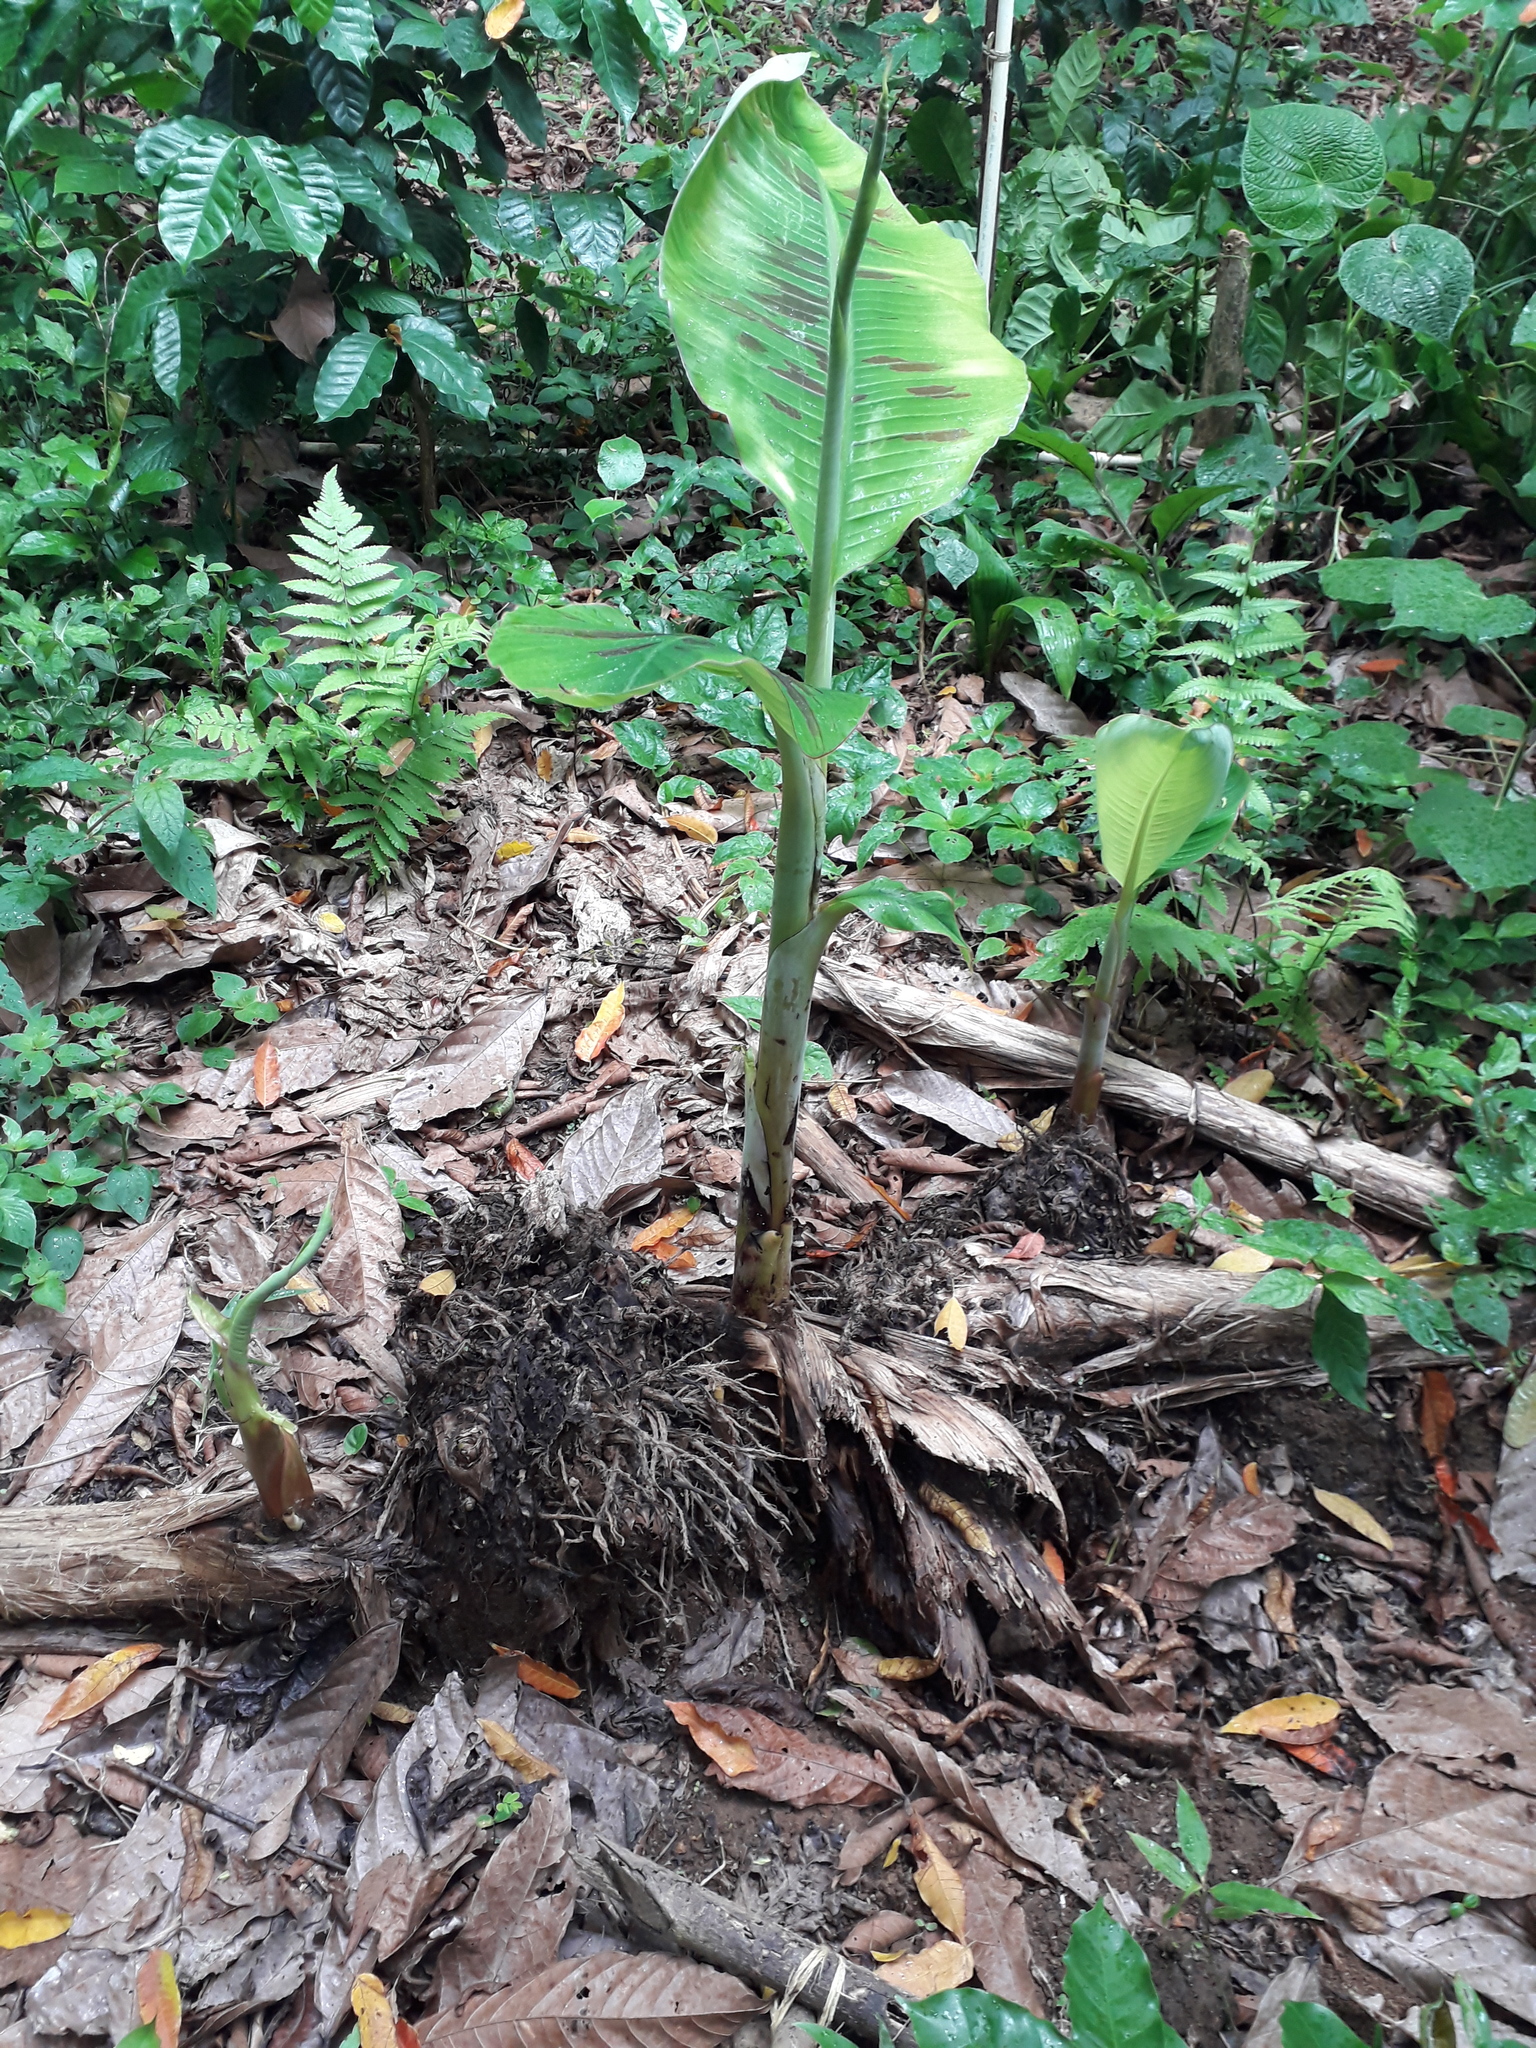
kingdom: Plantae
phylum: Tracheophyta
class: Liliopsida
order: Zingiberales
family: Musaceae
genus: Musa
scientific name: Musa paradisiaca
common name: French plantain
